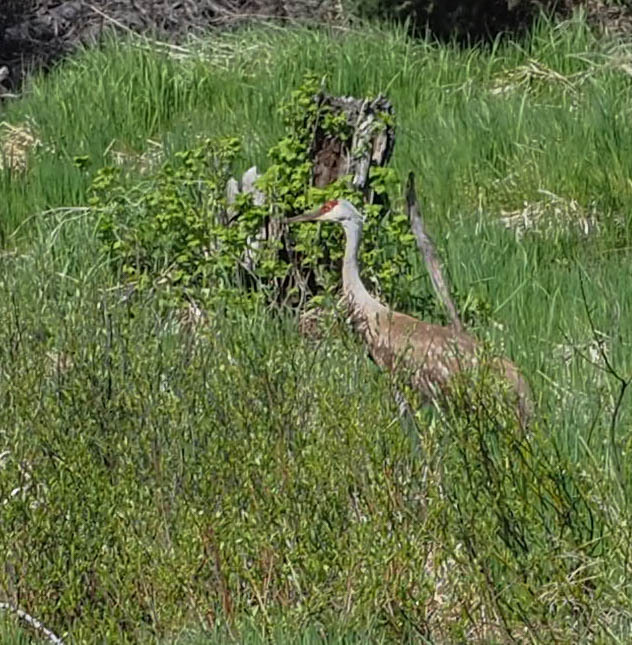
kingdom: Animalia
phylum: Chordata
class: Aves
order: Gruiformes
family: Gruidae
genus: Grus
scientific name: Grus canadensis
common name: Sandhill crane
